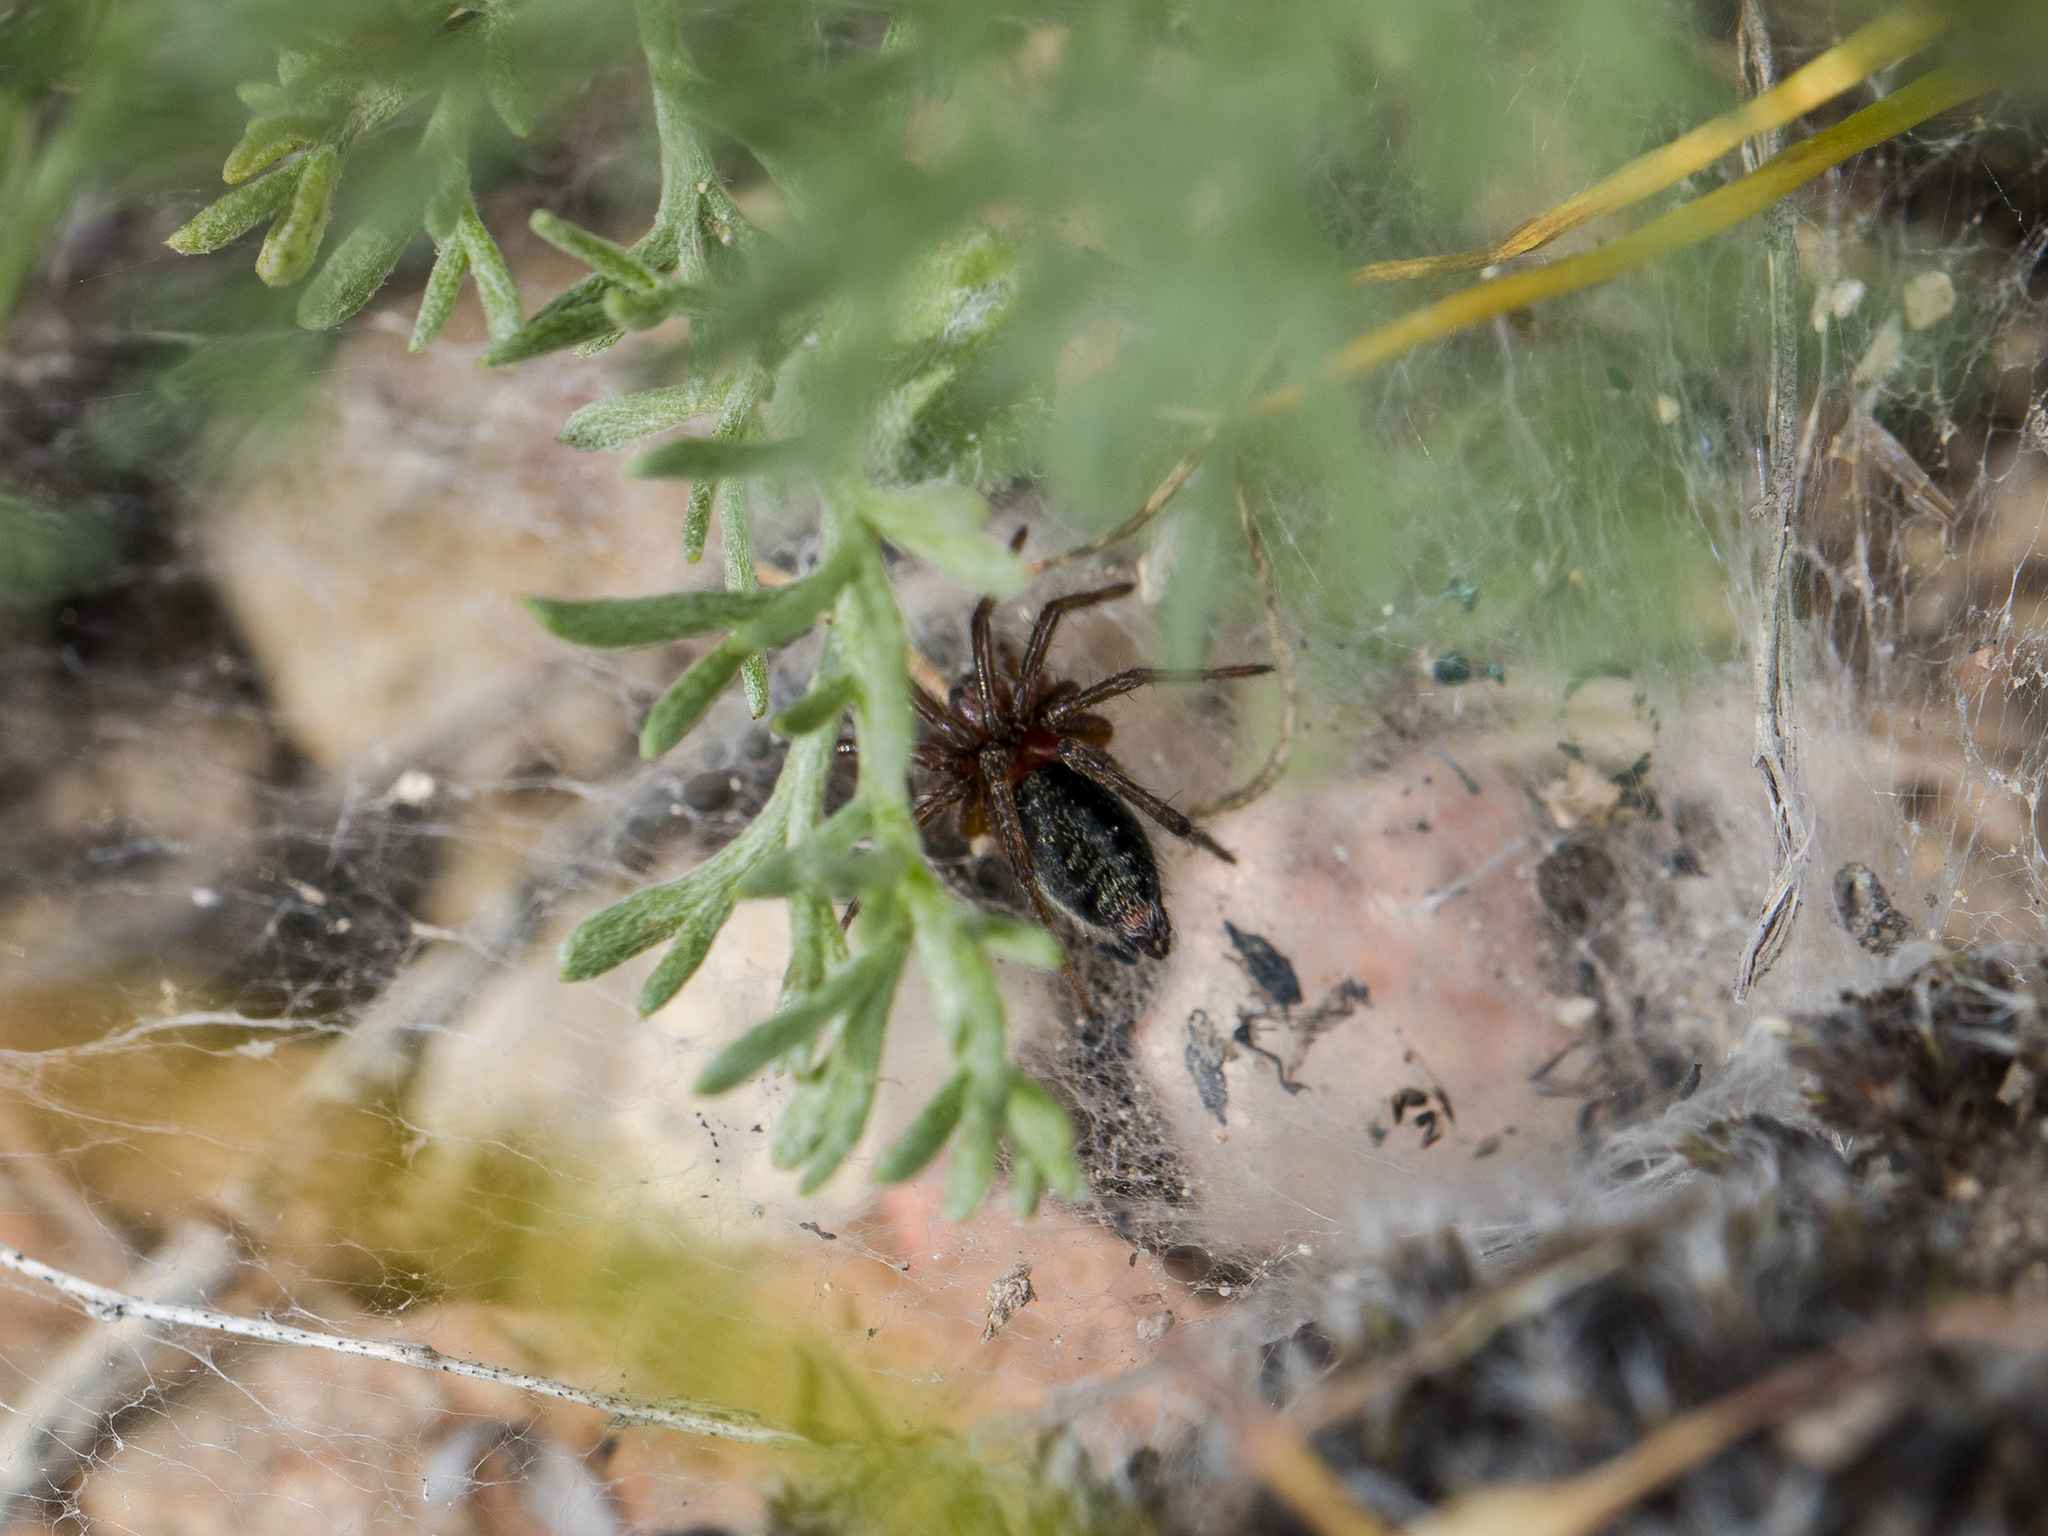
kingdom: Animalia
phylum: Arthropoda
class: Arachnida
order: Araneae
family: Agelenidae
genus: Agelena
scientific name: Agelena labyrinthica
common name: Labyrinth spider
